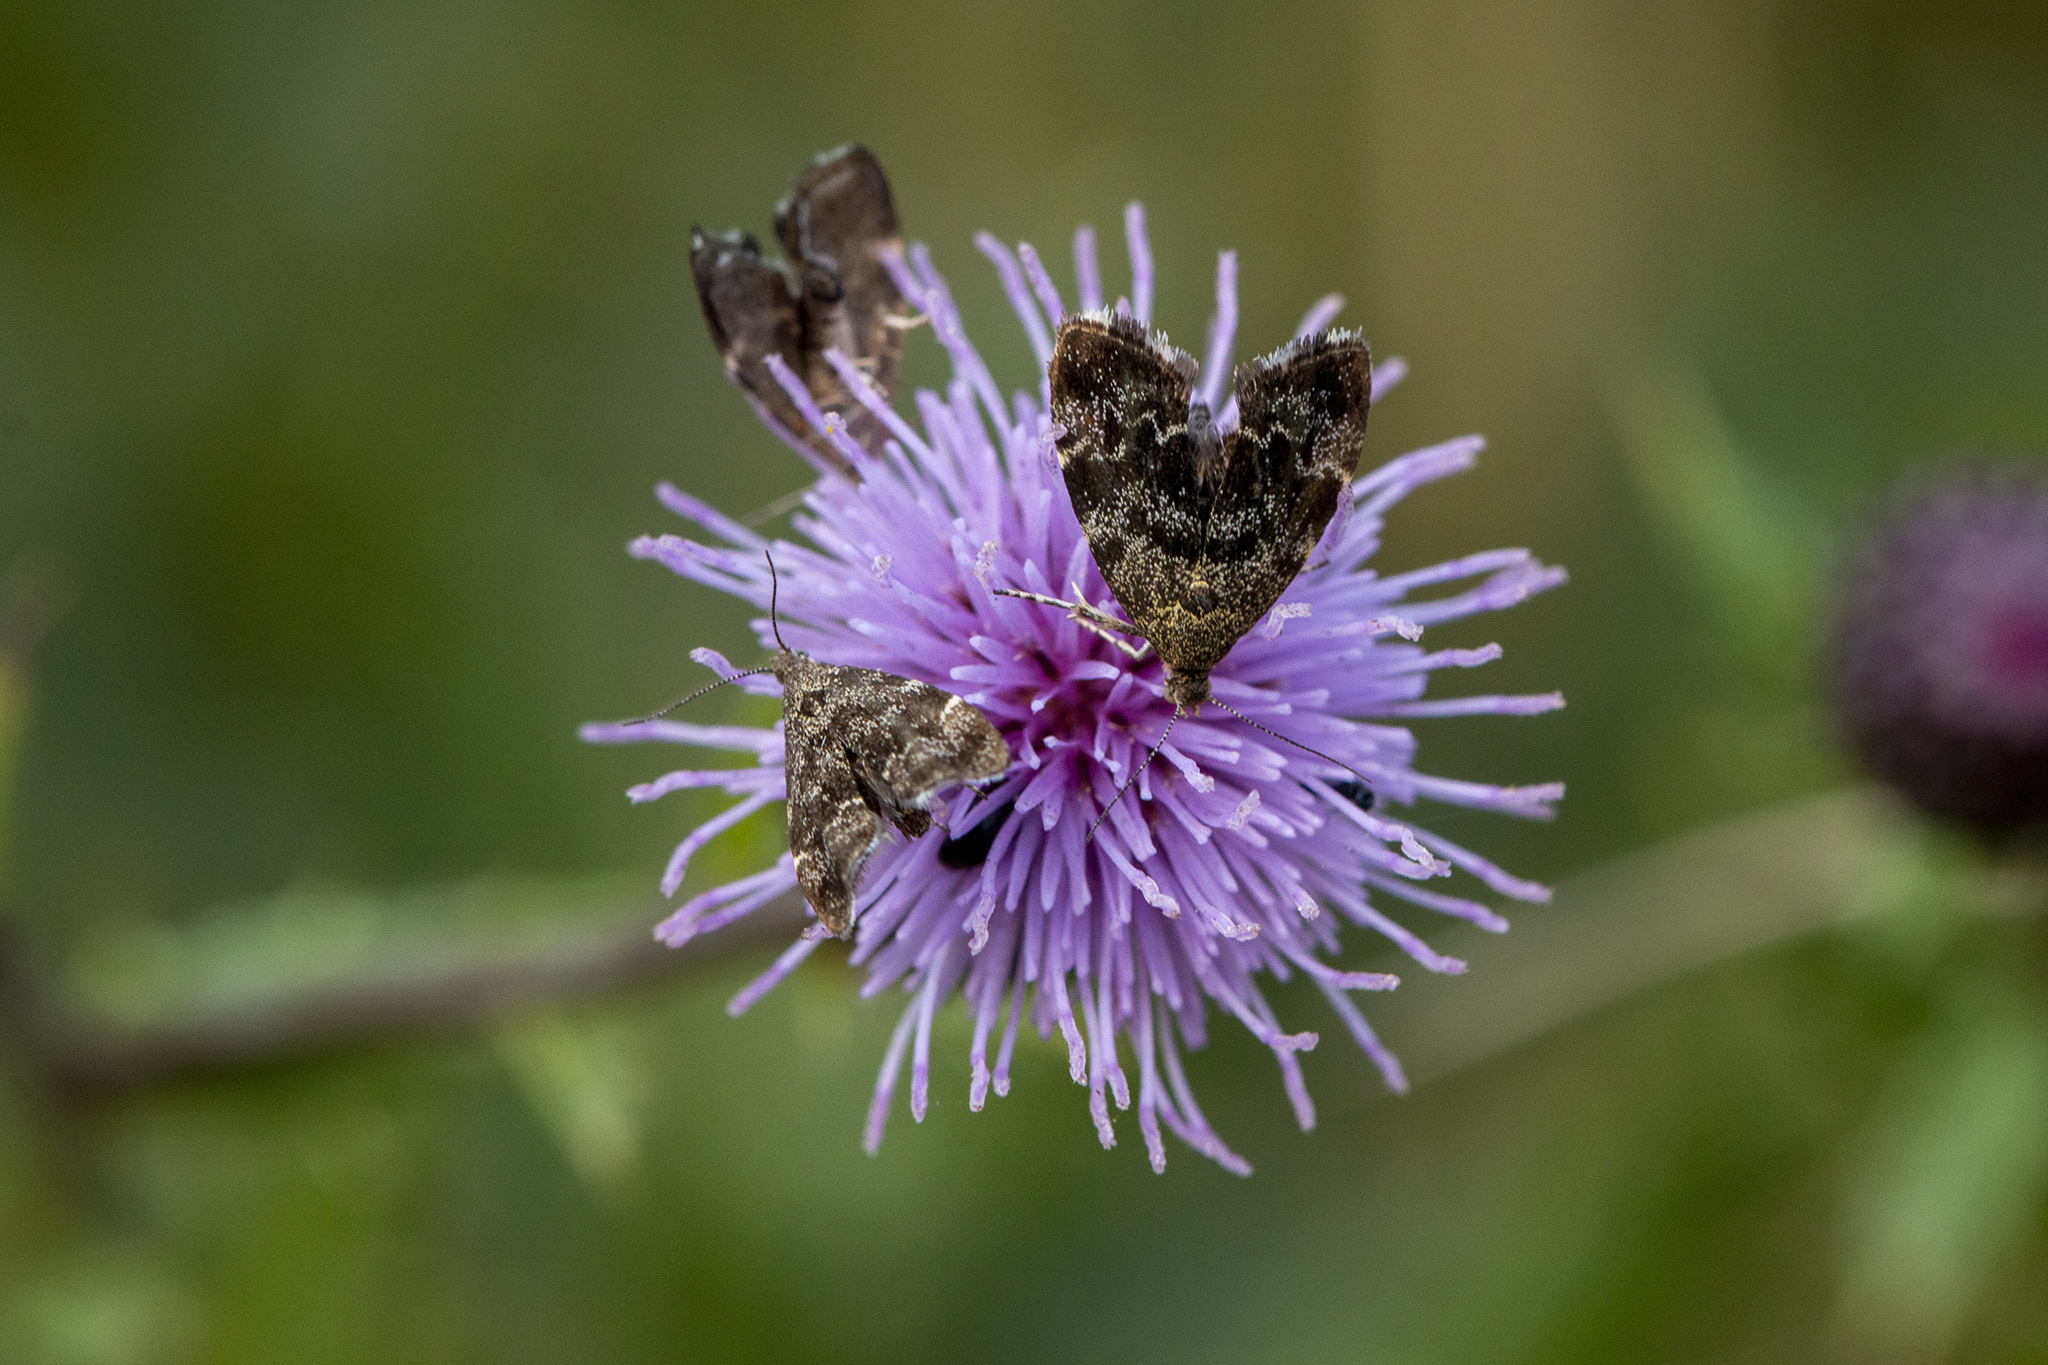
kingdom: Animalia
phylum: Arthropoda
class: Insecta
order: Lepidoptera
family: Choreutidae
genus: Anthophila
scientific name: Anthophila fabriciana
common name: Nettle-tap
